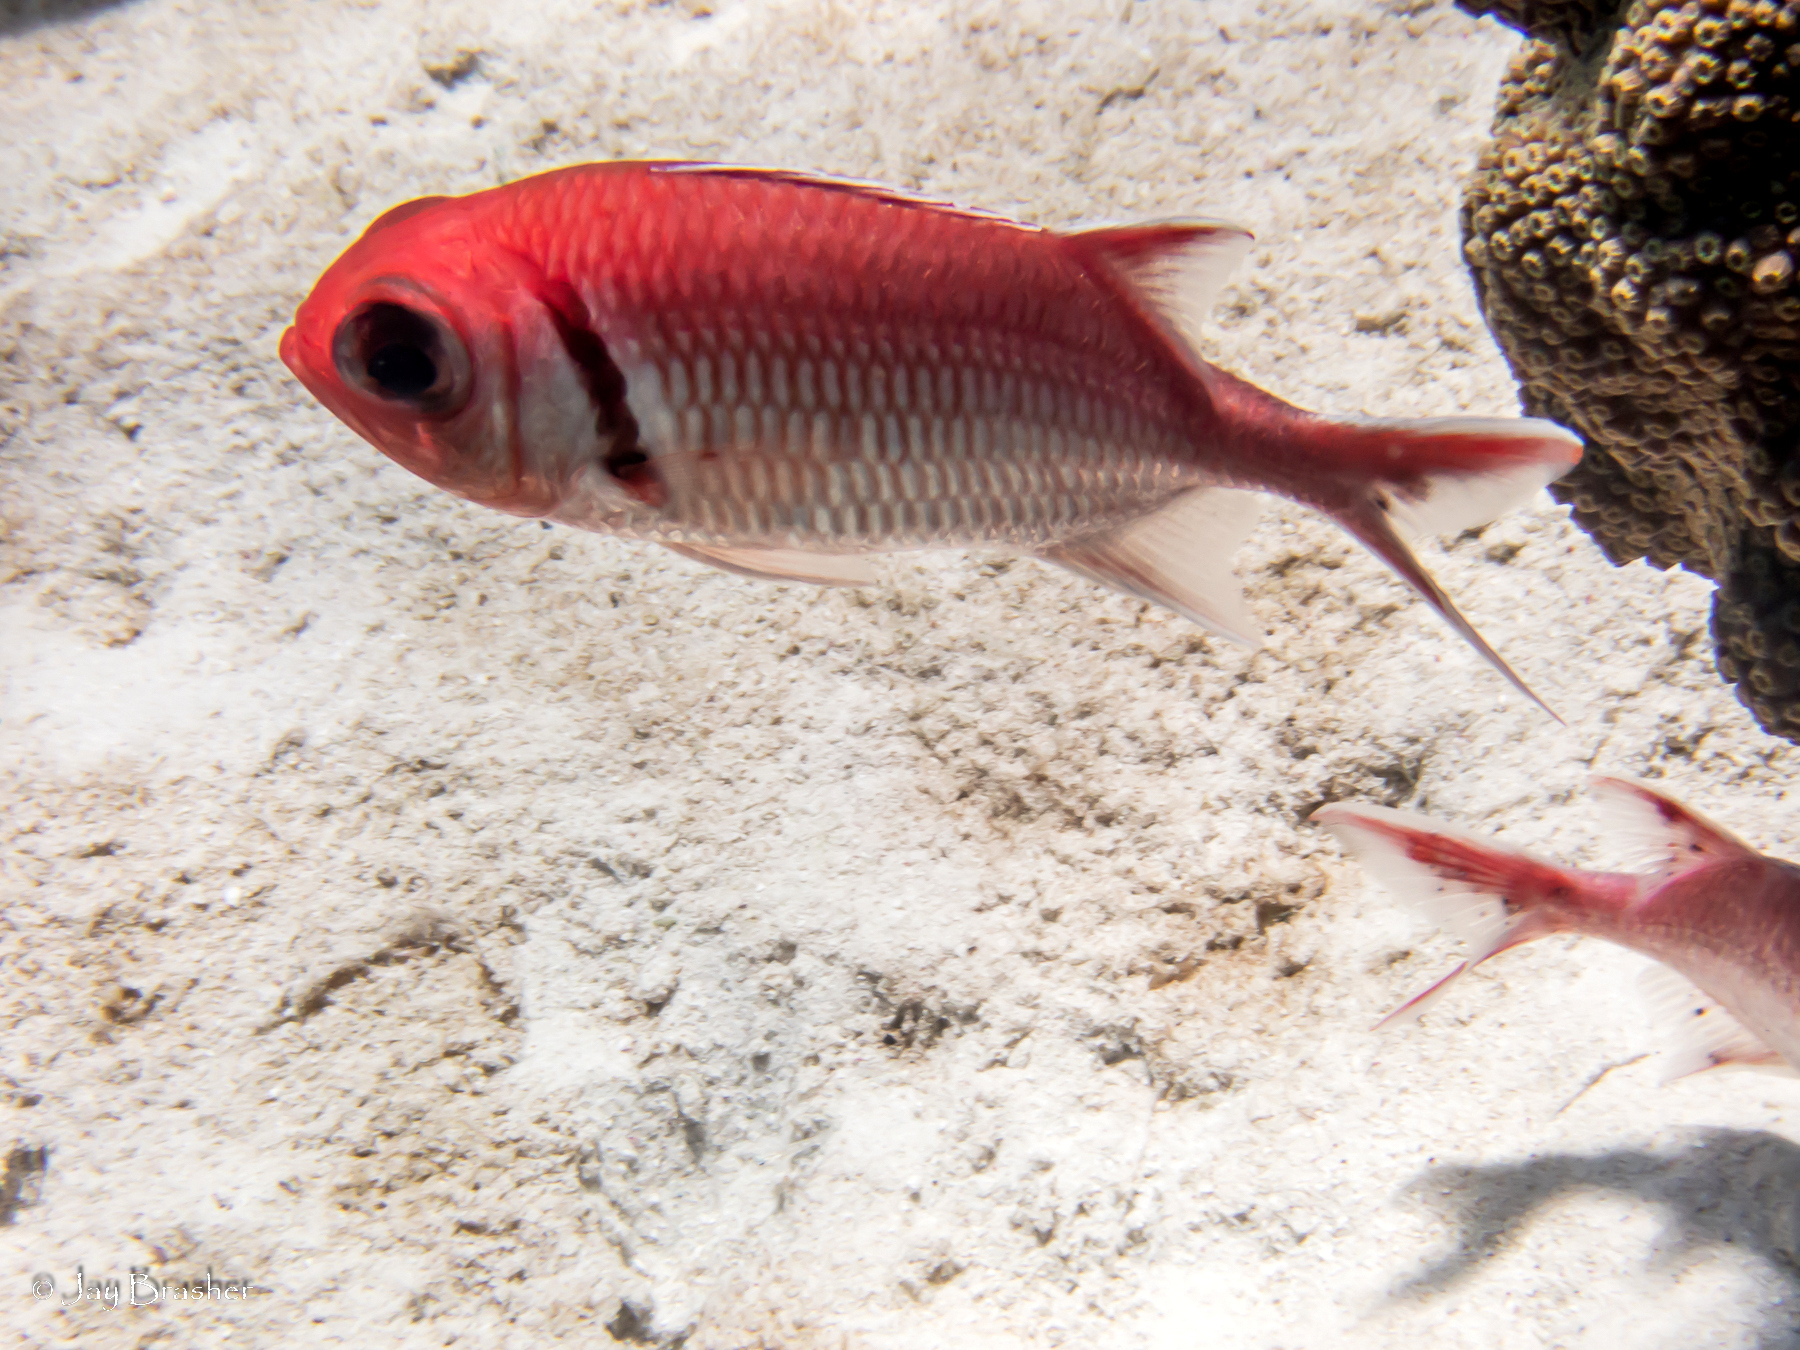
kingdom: Animalia
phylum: Chordata
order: Beryciformes
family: Holocentridae
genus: Myripristis
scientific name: Myripristis jacobus
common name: Blackbar soldierfish
